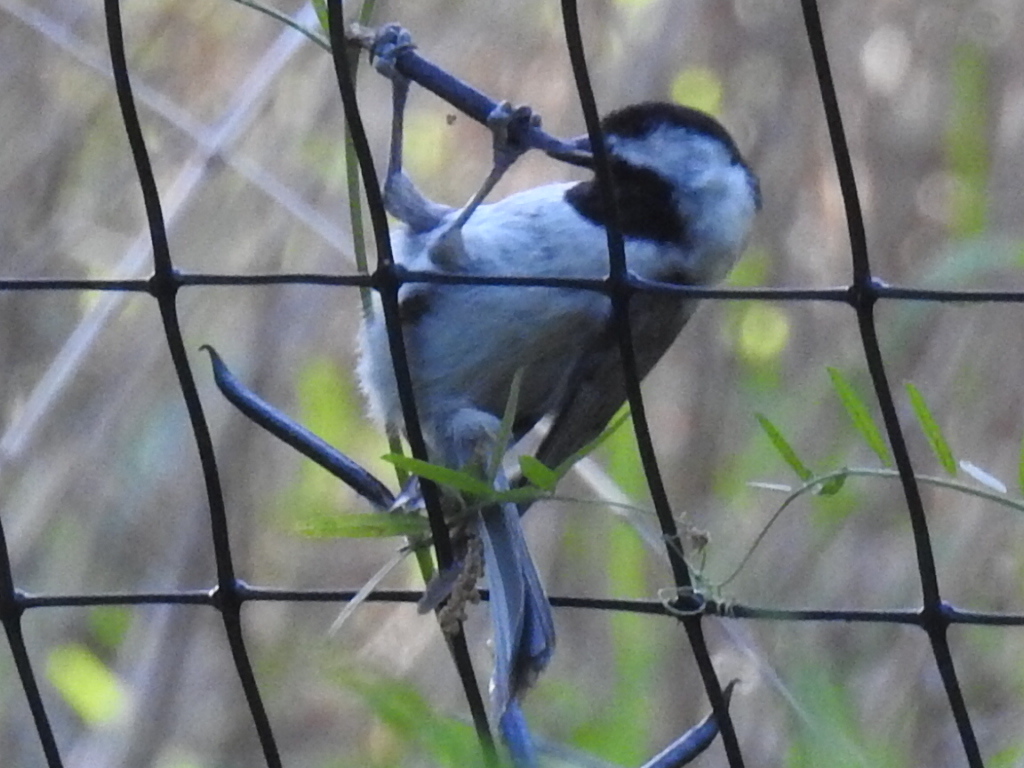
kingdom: Animalia
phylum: Chordata
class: Aves
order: Passeriformes
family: Paridae
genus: Poecile
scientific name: Poecile carolinensis
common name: Carolina chickadee
